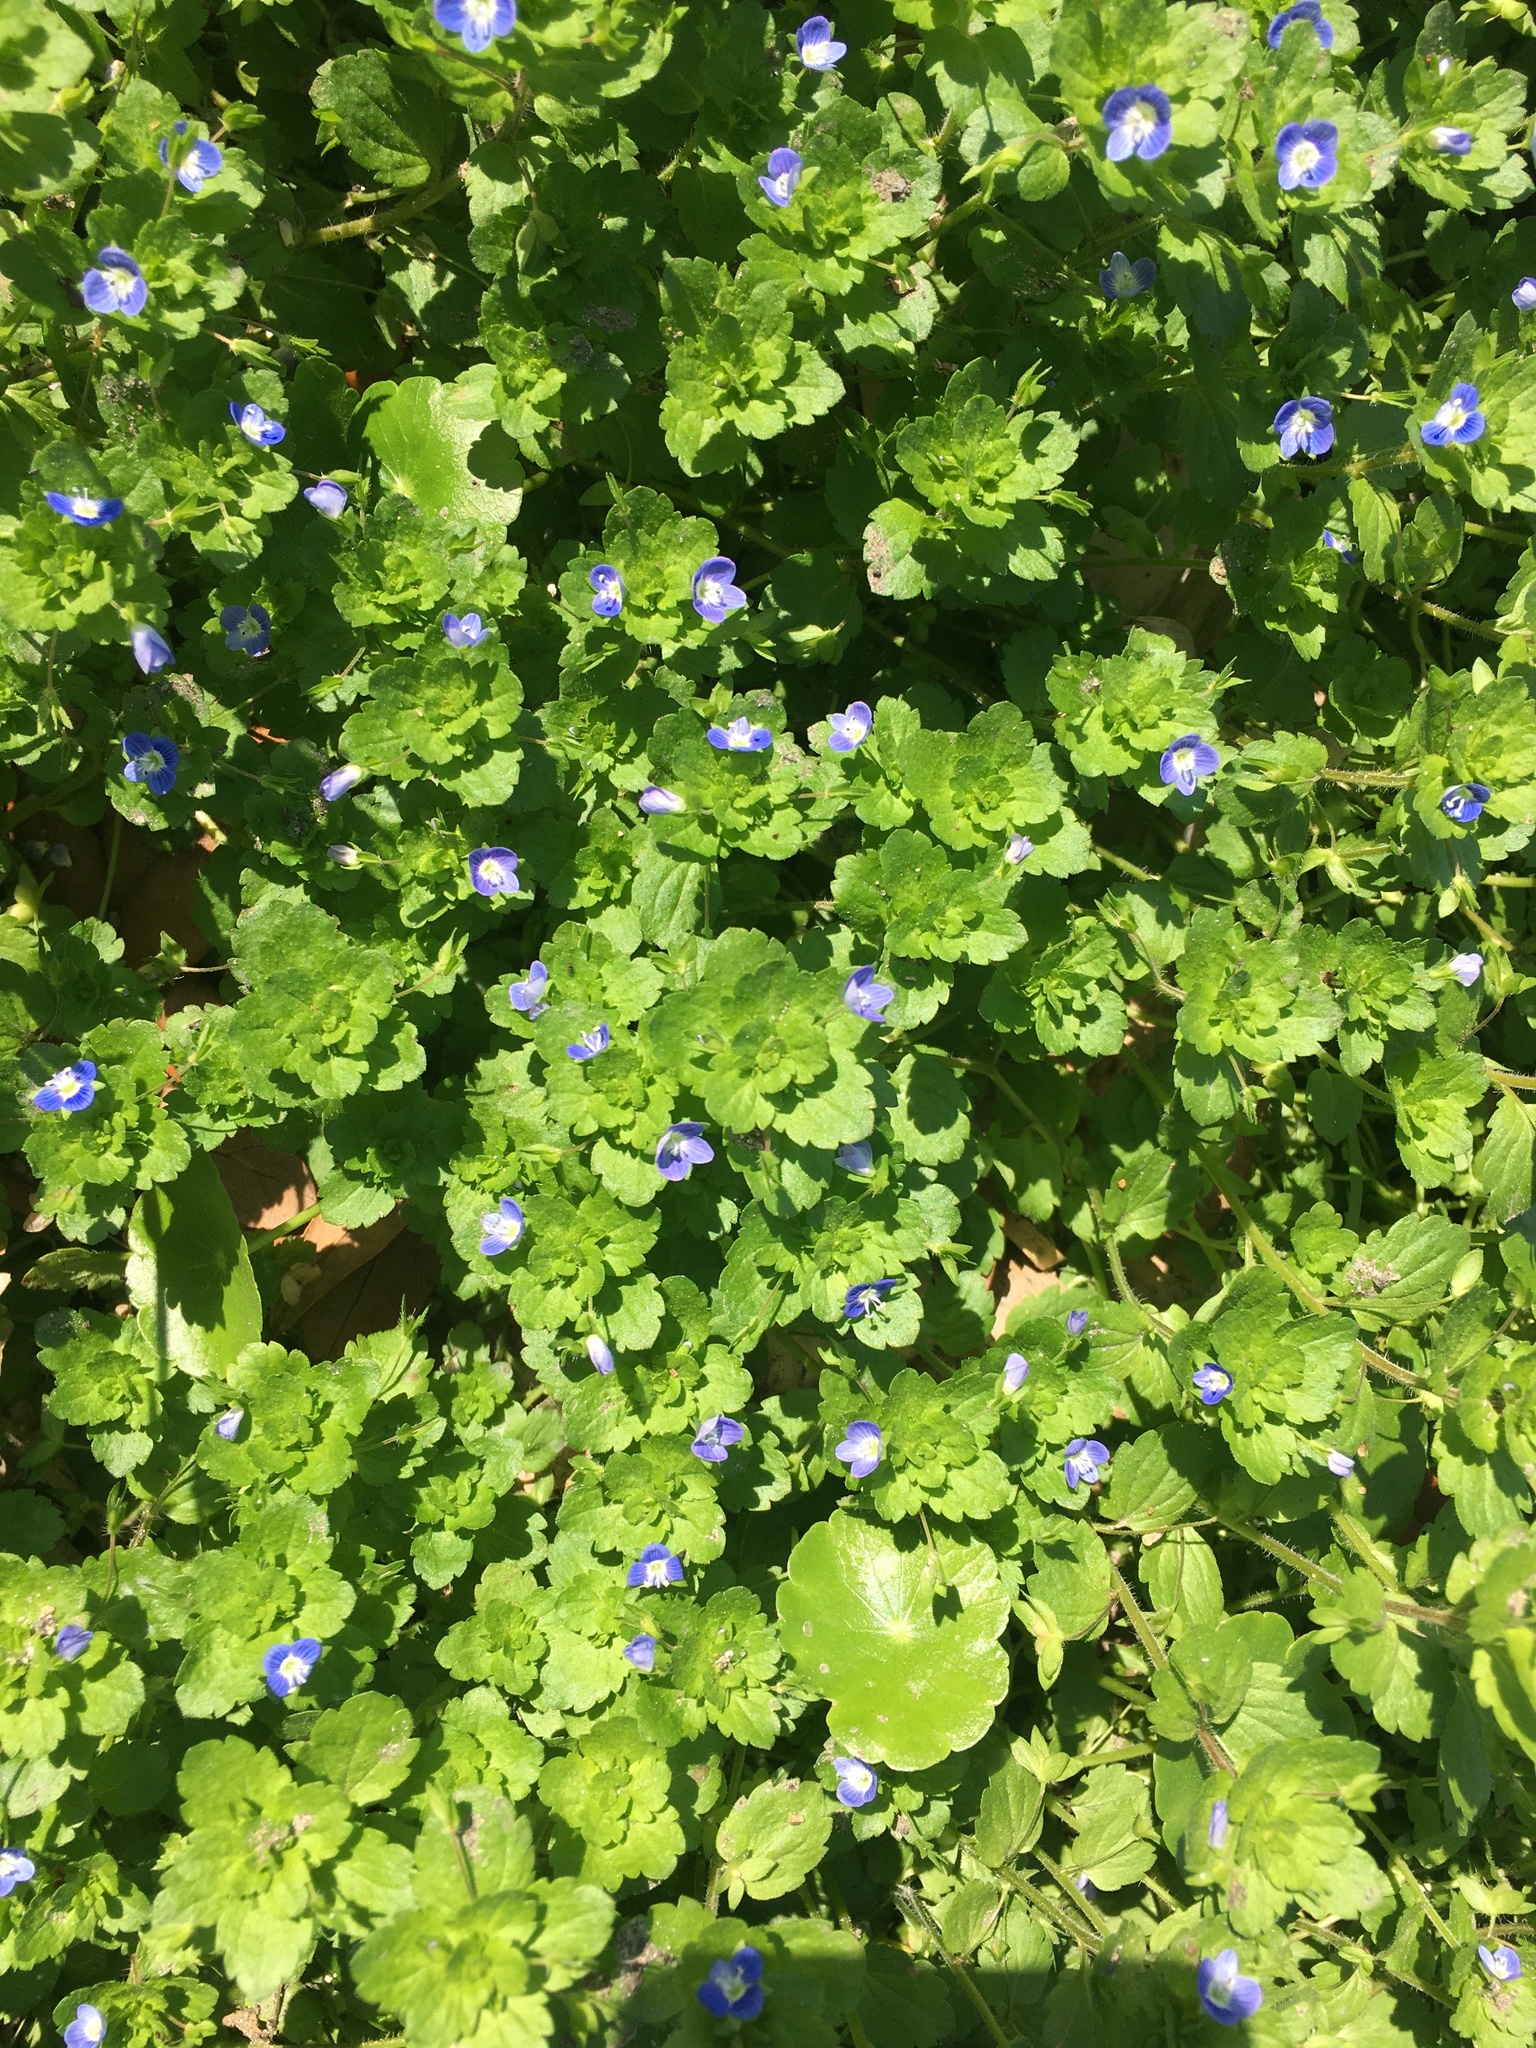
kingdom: Plantae
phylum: Tracheophyta
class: Magnoliopsida
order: Lamiales
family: Plantaginaceae
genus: Veronica
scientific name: Veronica persica
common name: Common field-speedwell
